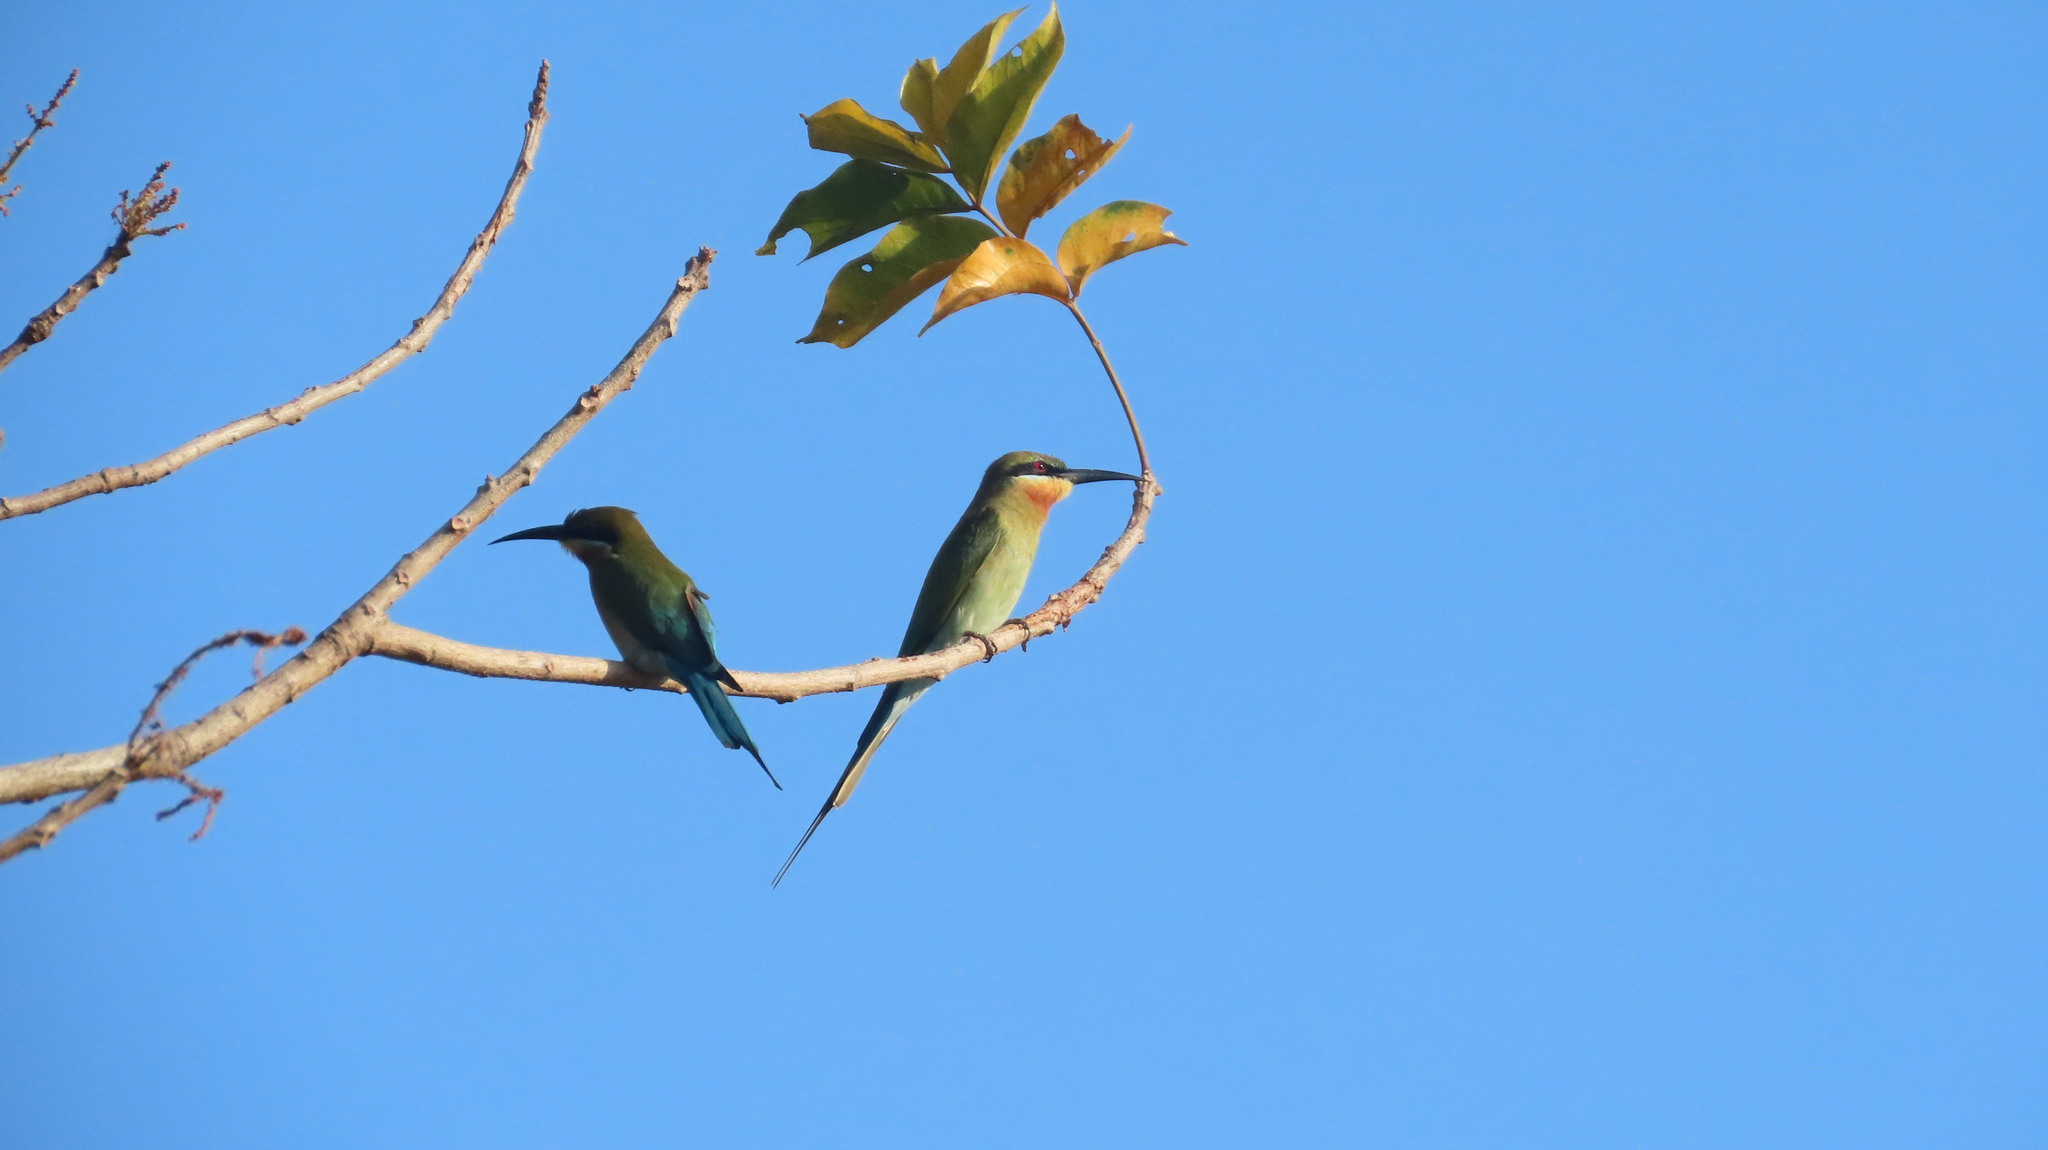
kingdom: Animalia
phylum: Chordata
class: Aves
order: Coraciiformes
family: Meropidae
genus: Merops
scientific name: Merops philippinus
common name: Blue-tailed bee-eater
